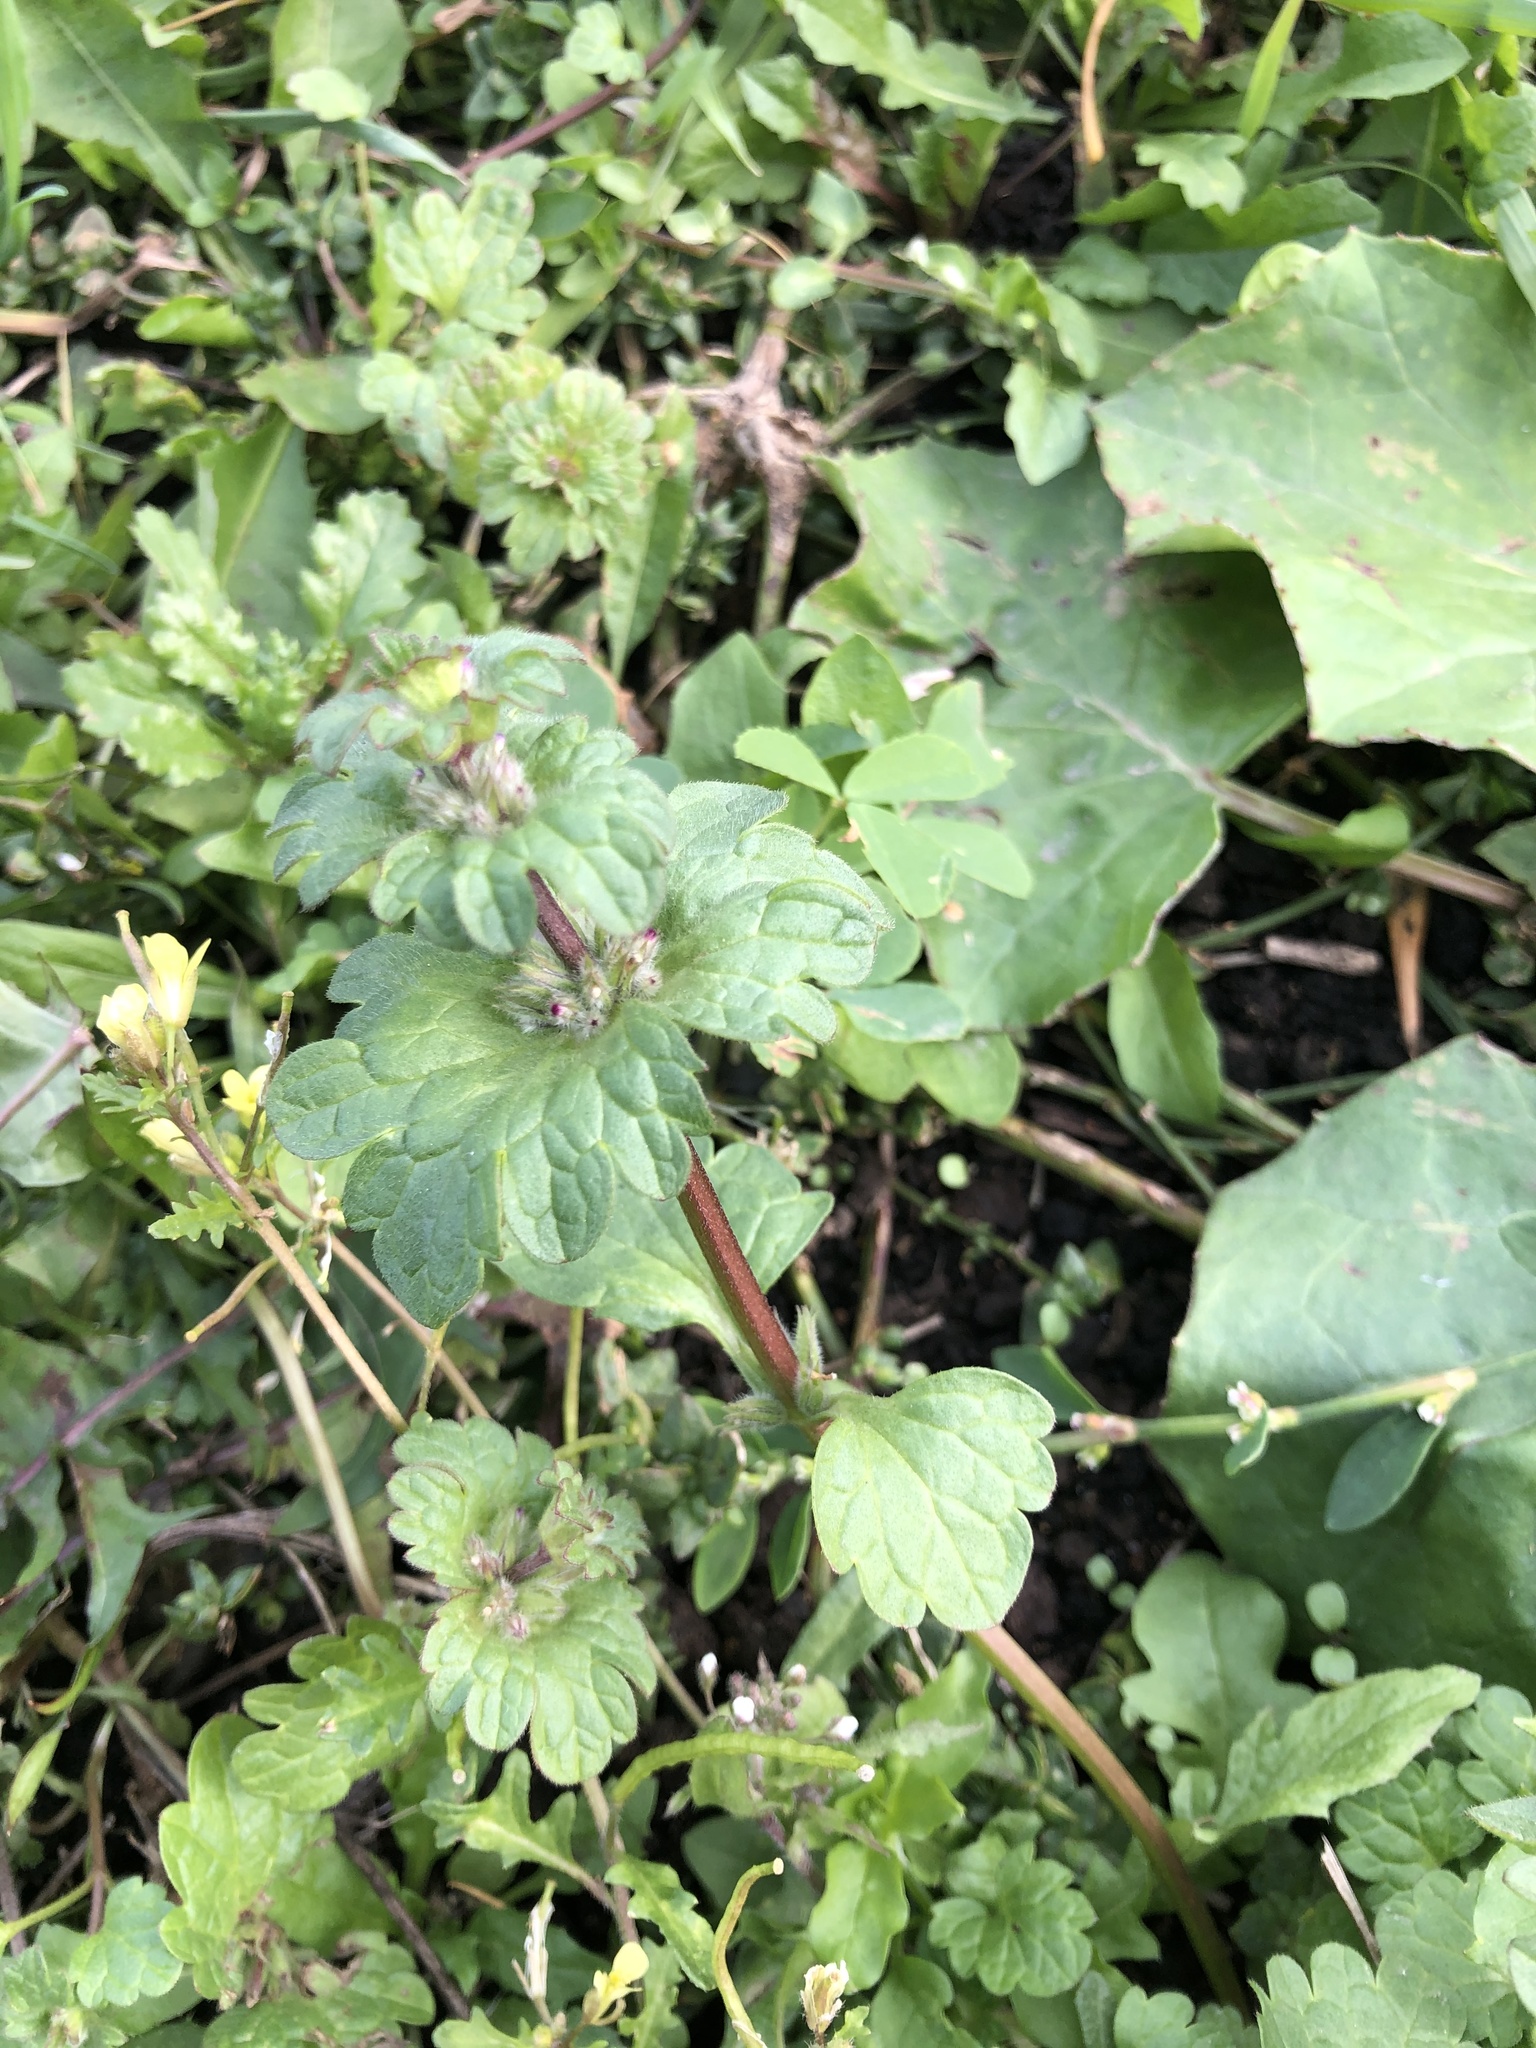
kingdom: Plantae
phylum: Tracheophyta
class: Magnoliopsida
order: Lamiales
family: Lamiaceae
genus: Lamium
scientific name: Lamium amplexicaule
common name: Henbit dead-nettle
